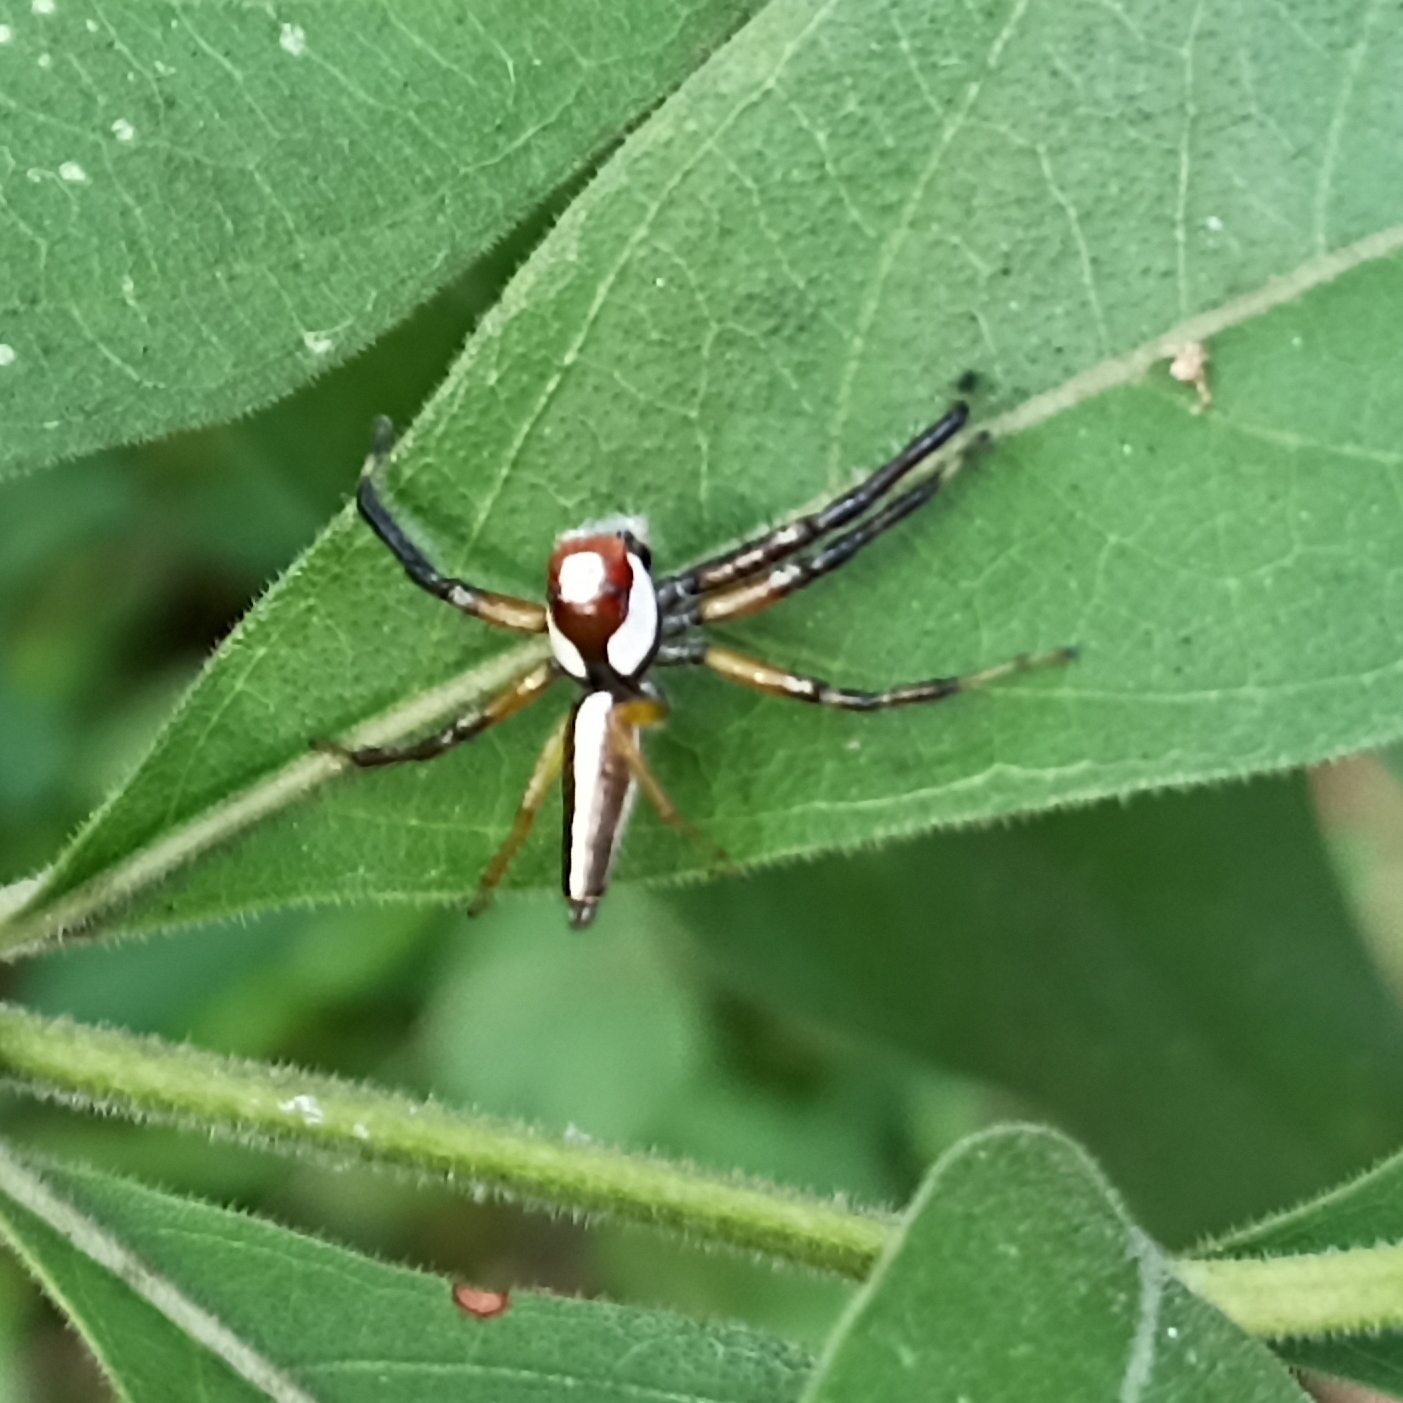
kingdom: Animalia
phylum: Arthropoda
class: Arachnida
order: Araneae
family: Salticidae
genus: Telamonia
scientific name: Telamonia dimidiata
